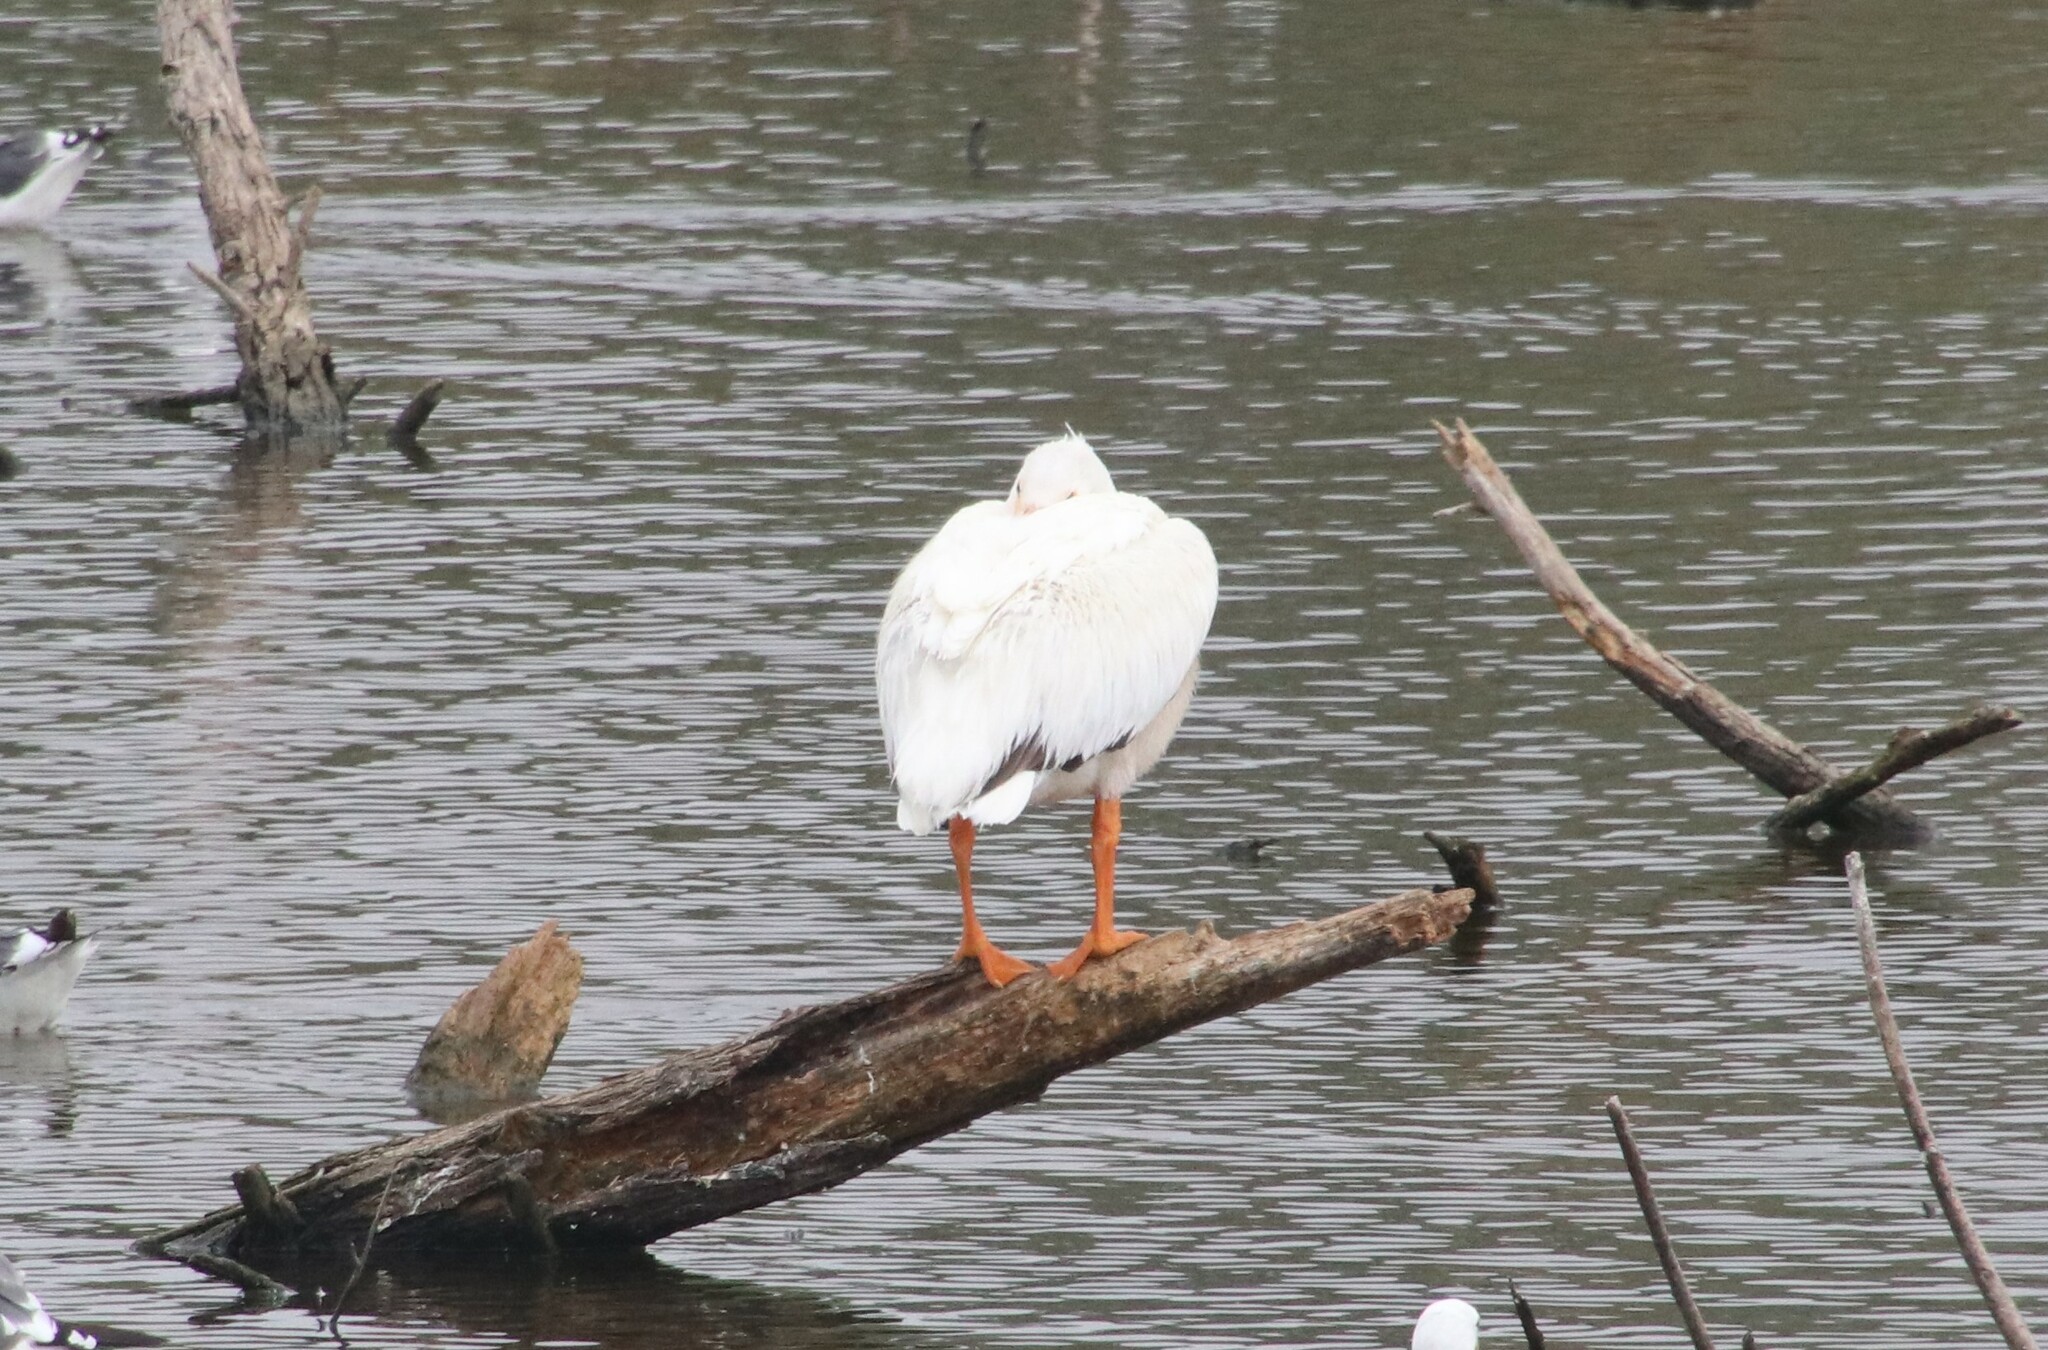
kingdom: Animalia
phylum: Chordata
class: Aves
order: Pelecaniformes
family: Pelecanidae
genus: Pelecanus
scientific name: Pelecanus erythrorhynchos
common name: American white pelican
